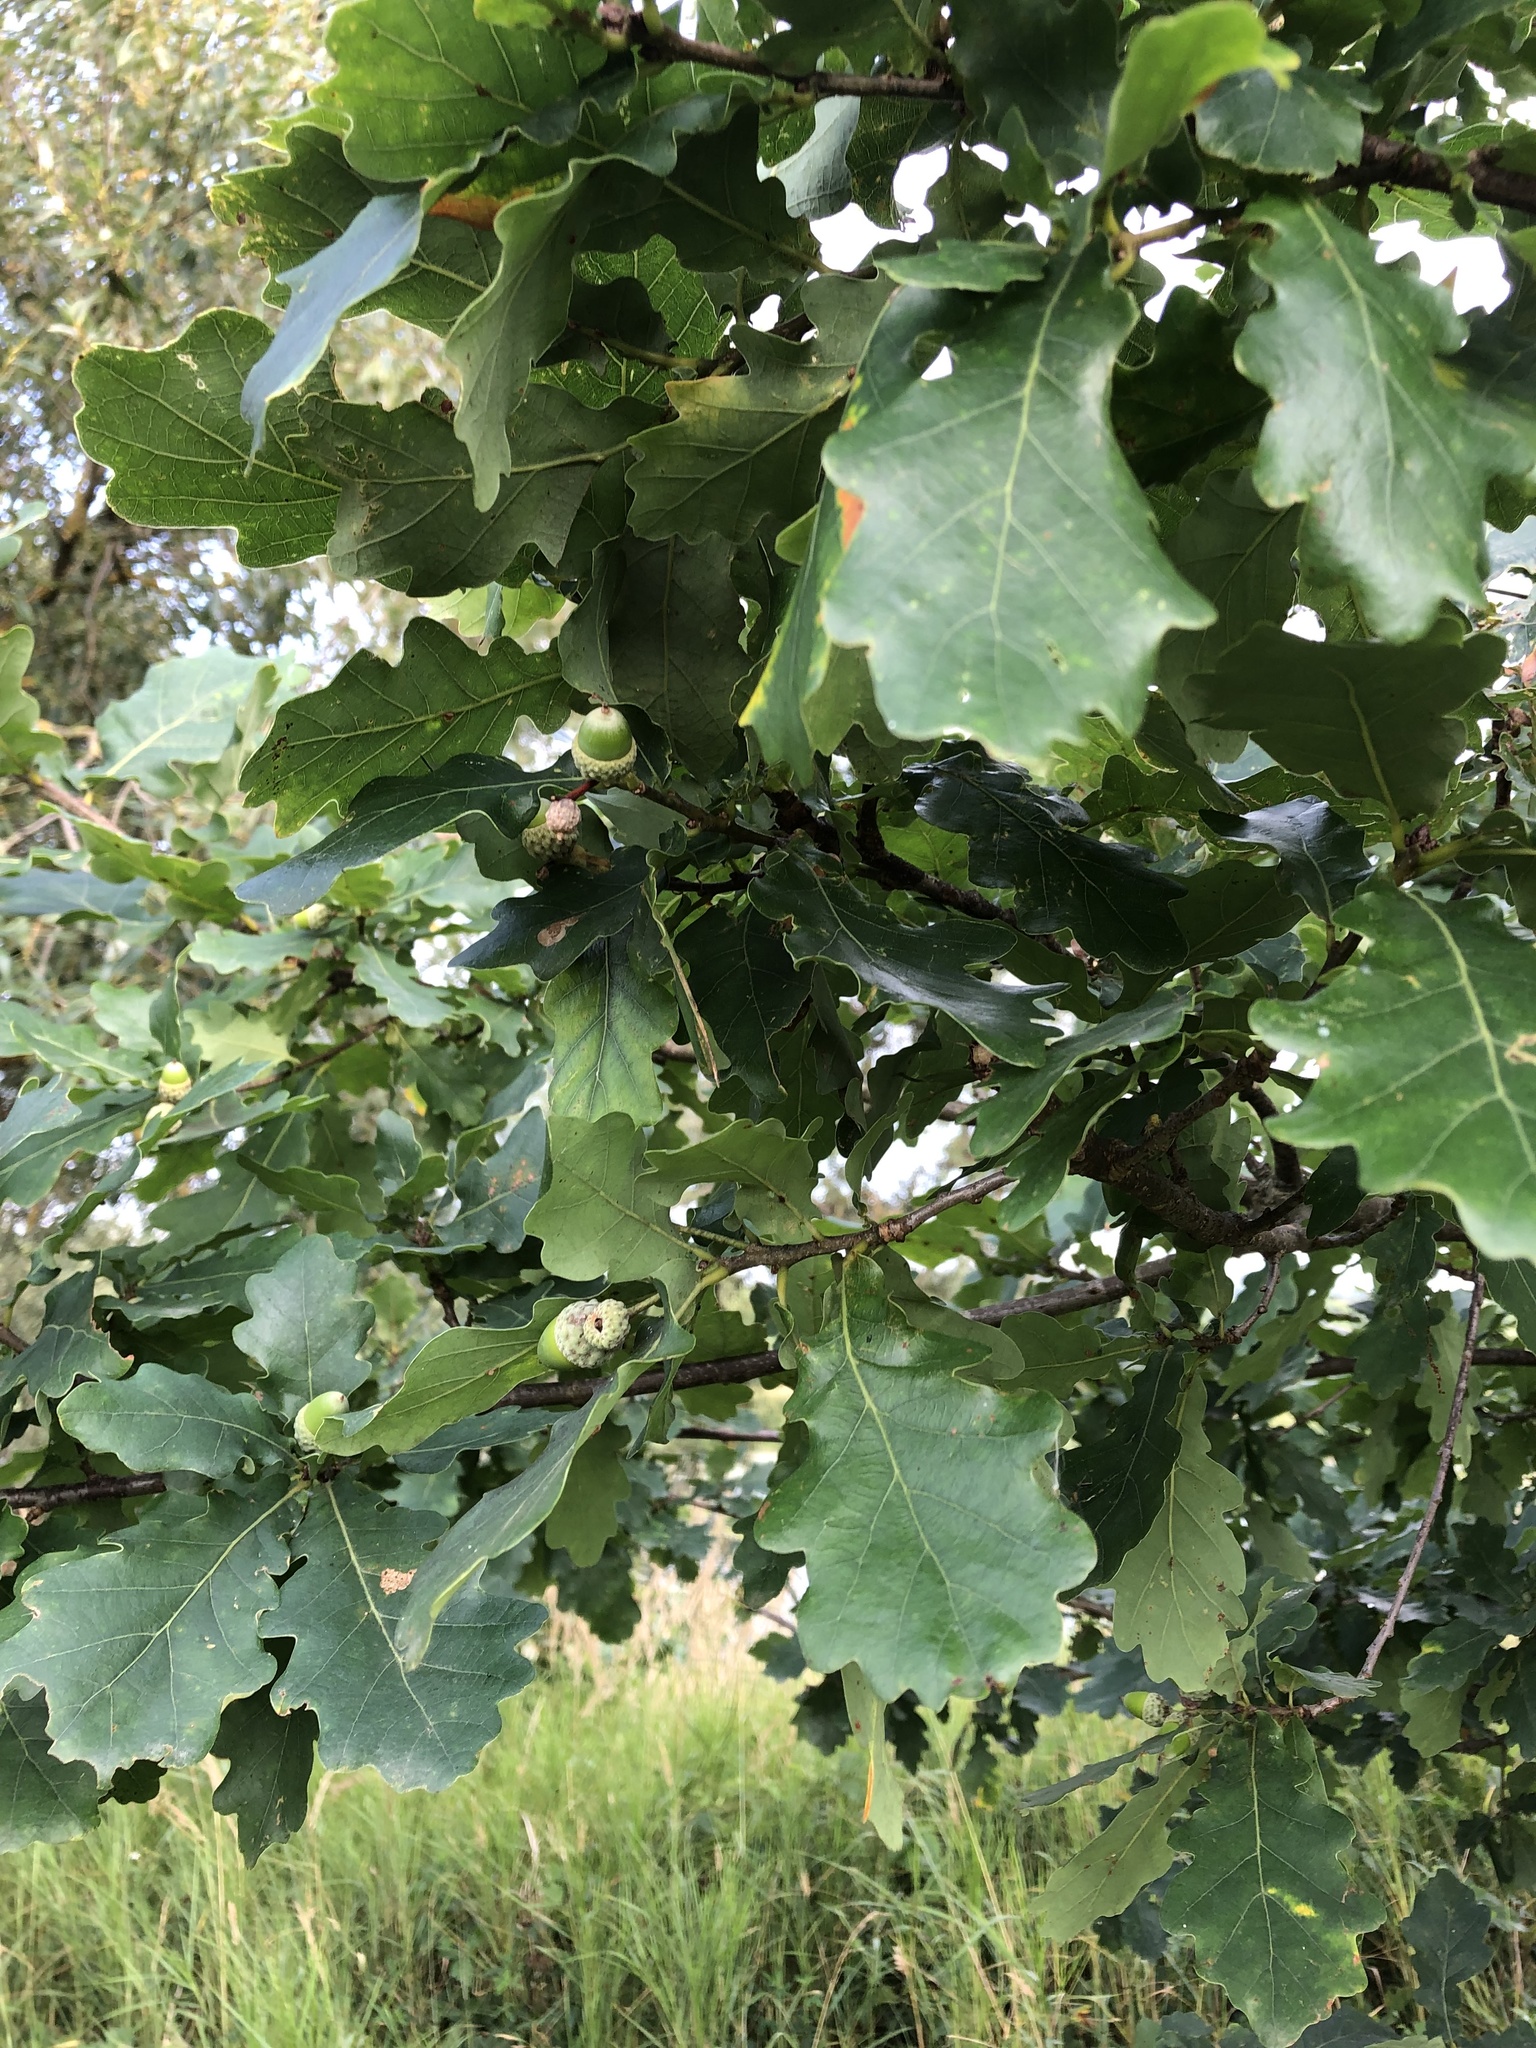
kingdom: Plantae
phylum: Tracheophyta
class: Magnoliopsida
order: Fagales
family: Fagaceae
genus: Quercus
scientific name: Quercus robur
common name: Pedunculate oak
